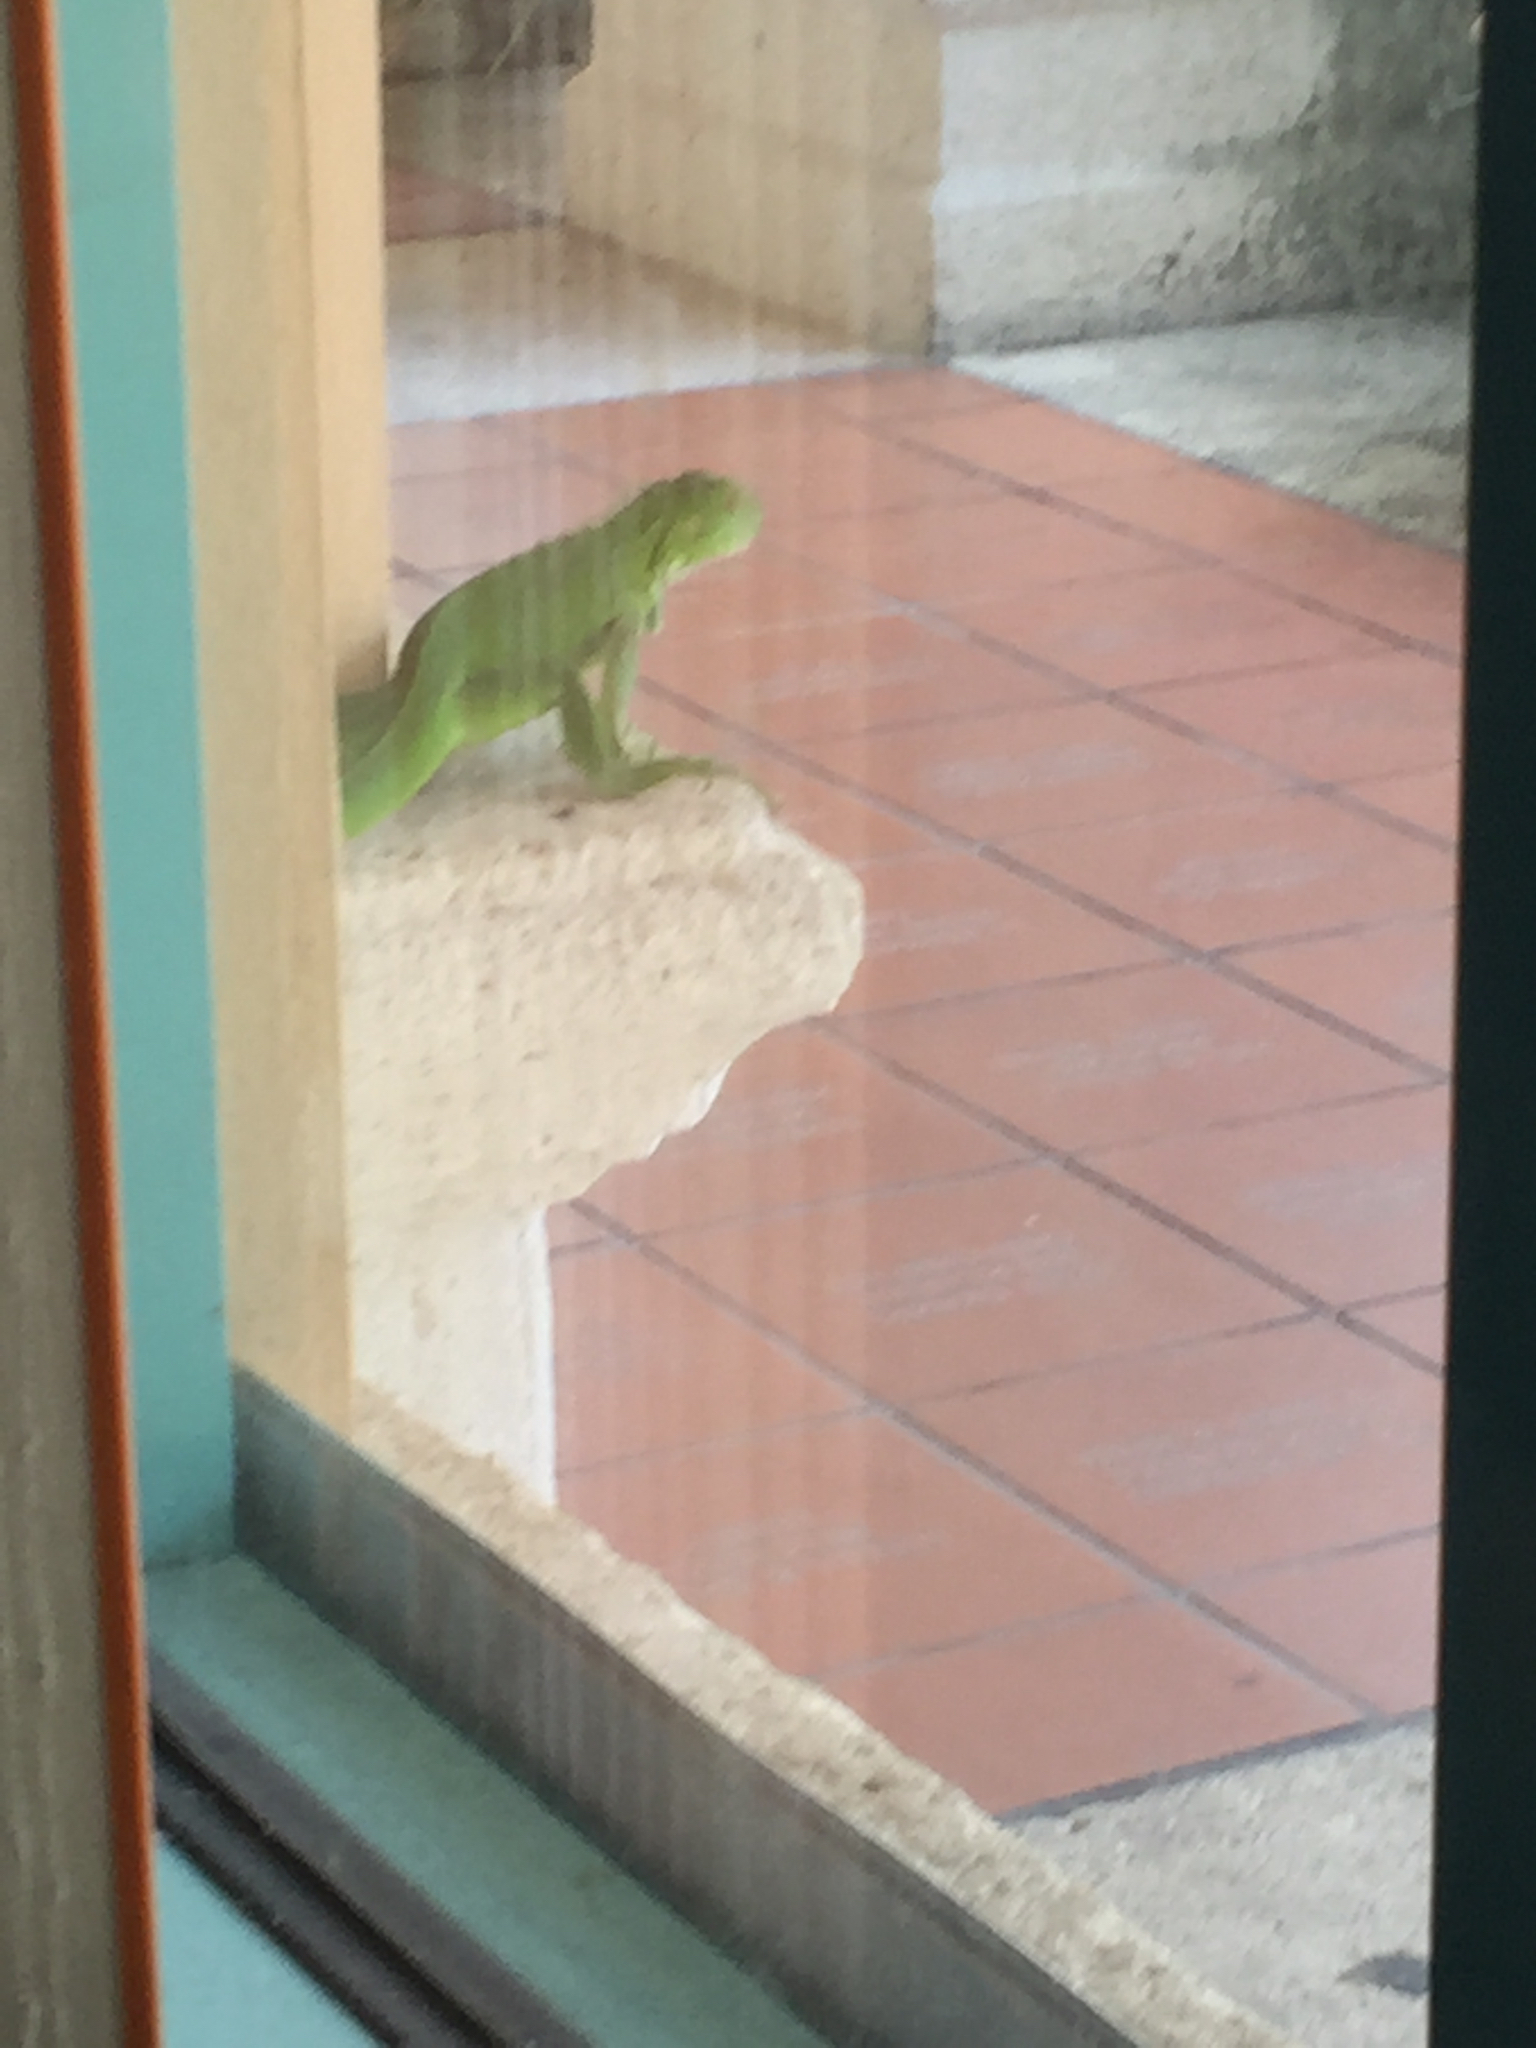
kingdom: Animalia
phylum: Chordata
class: Squamata
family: Iguanidae
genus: Iguana
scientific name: Iguana iguana
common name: Green iguana
